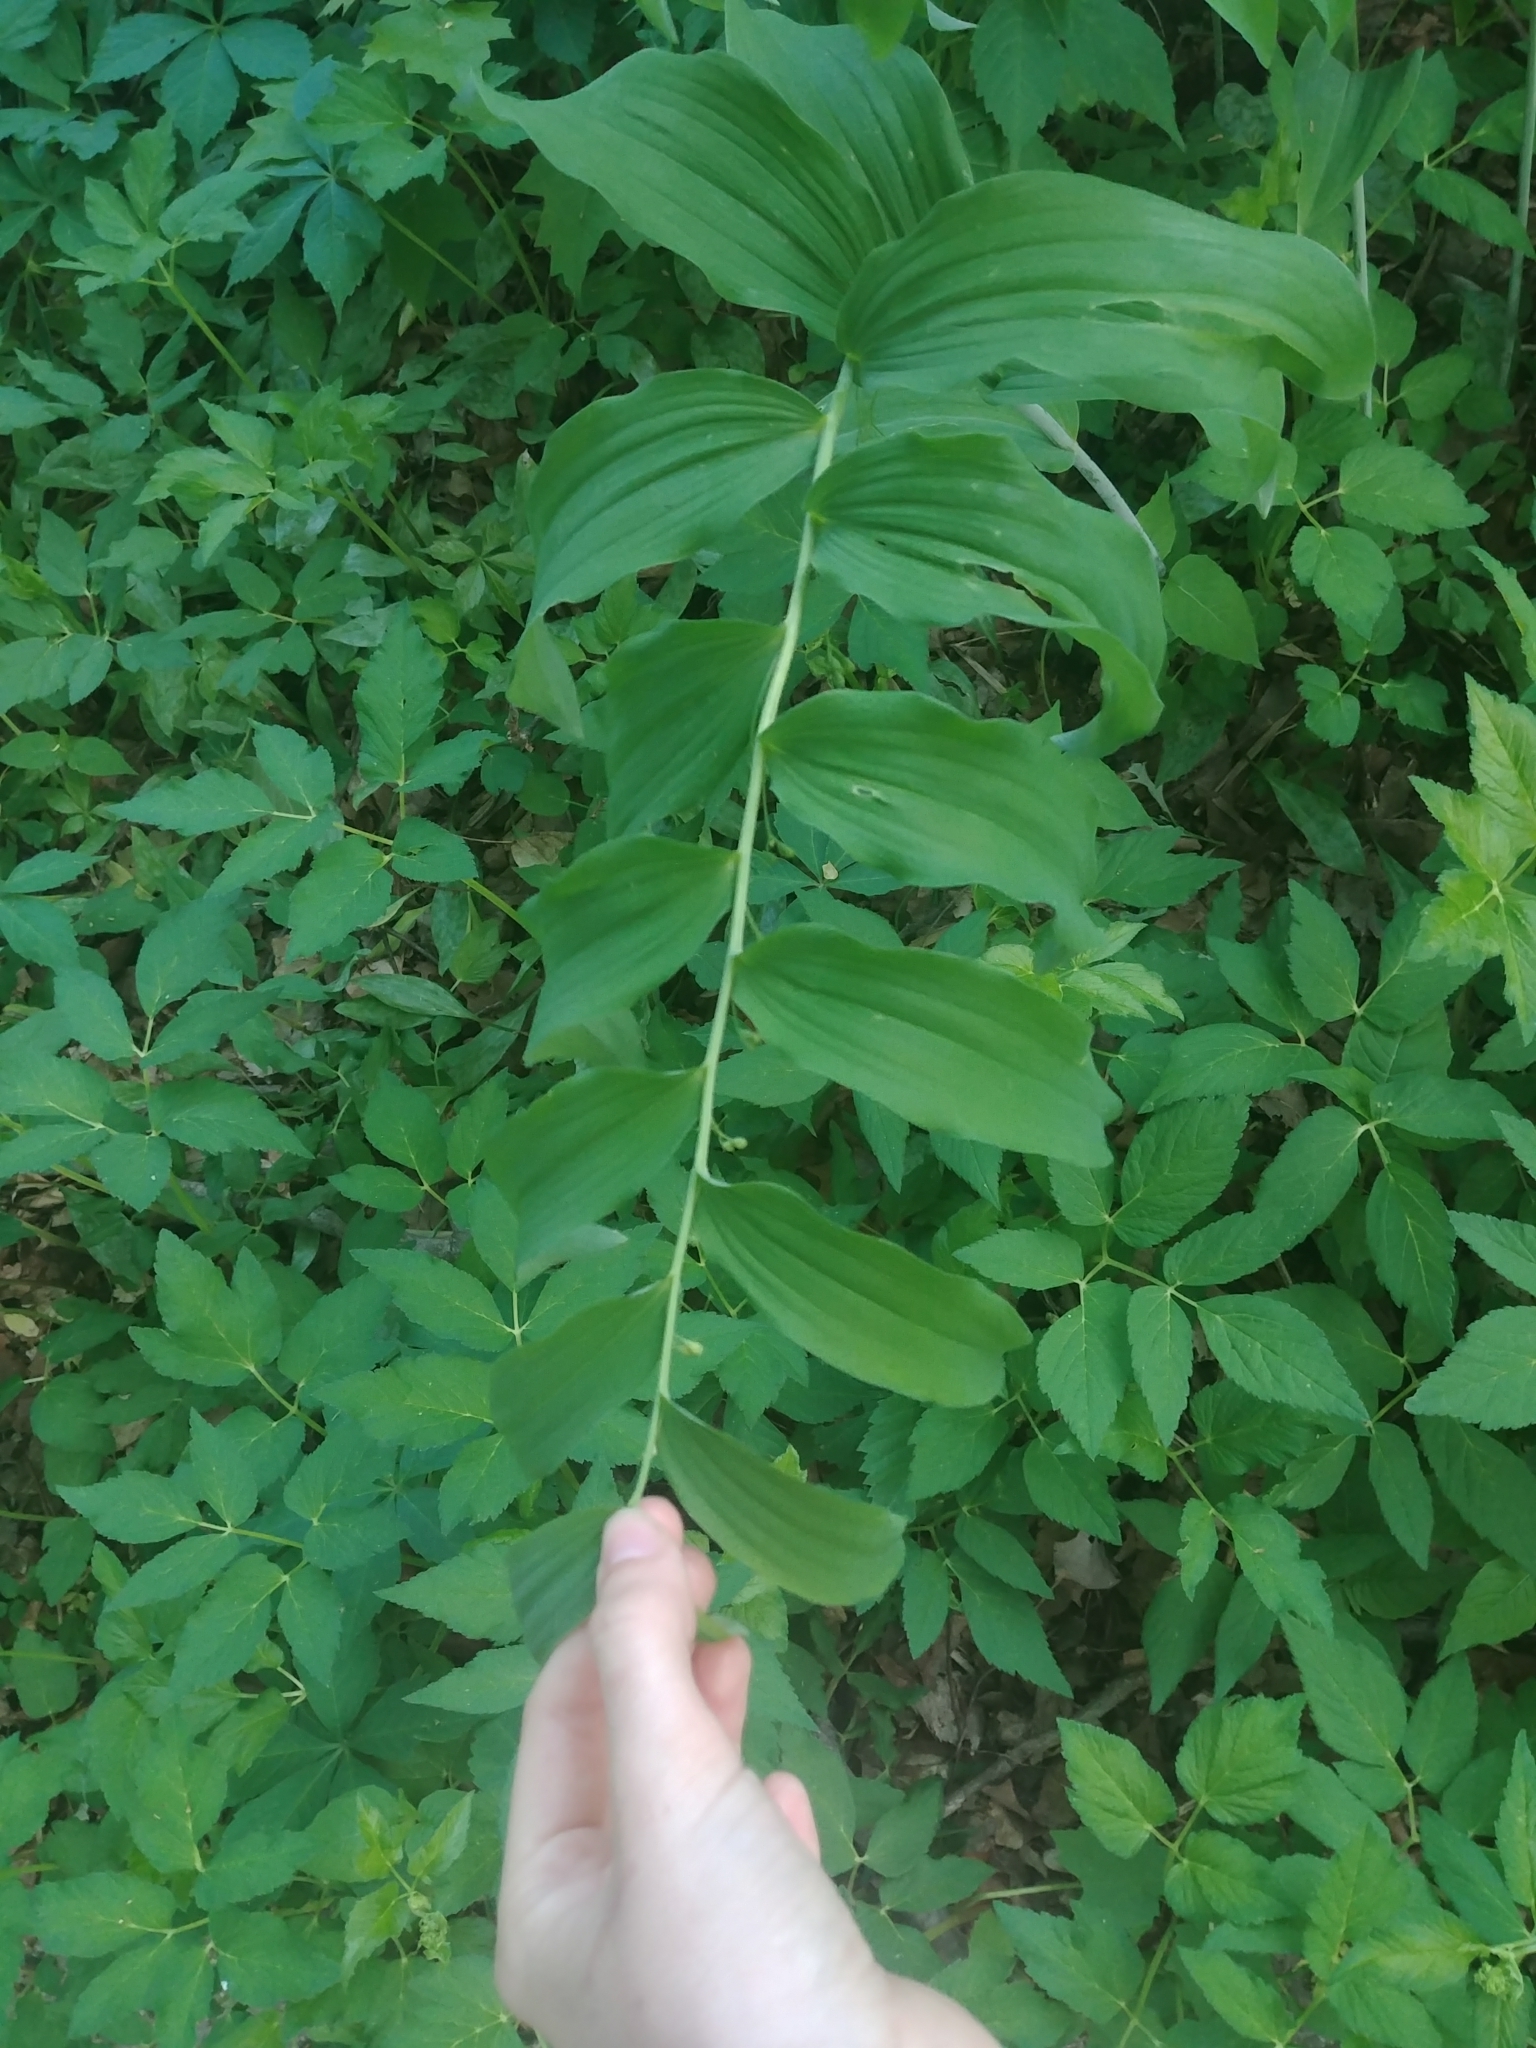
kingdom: Plantae
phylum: Tracheophyta
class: Liliopsida
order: Asparagales
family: Asparagaceae
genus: Polygonatum
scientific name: Polygonatum biflorum
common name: American solomon's-seal
